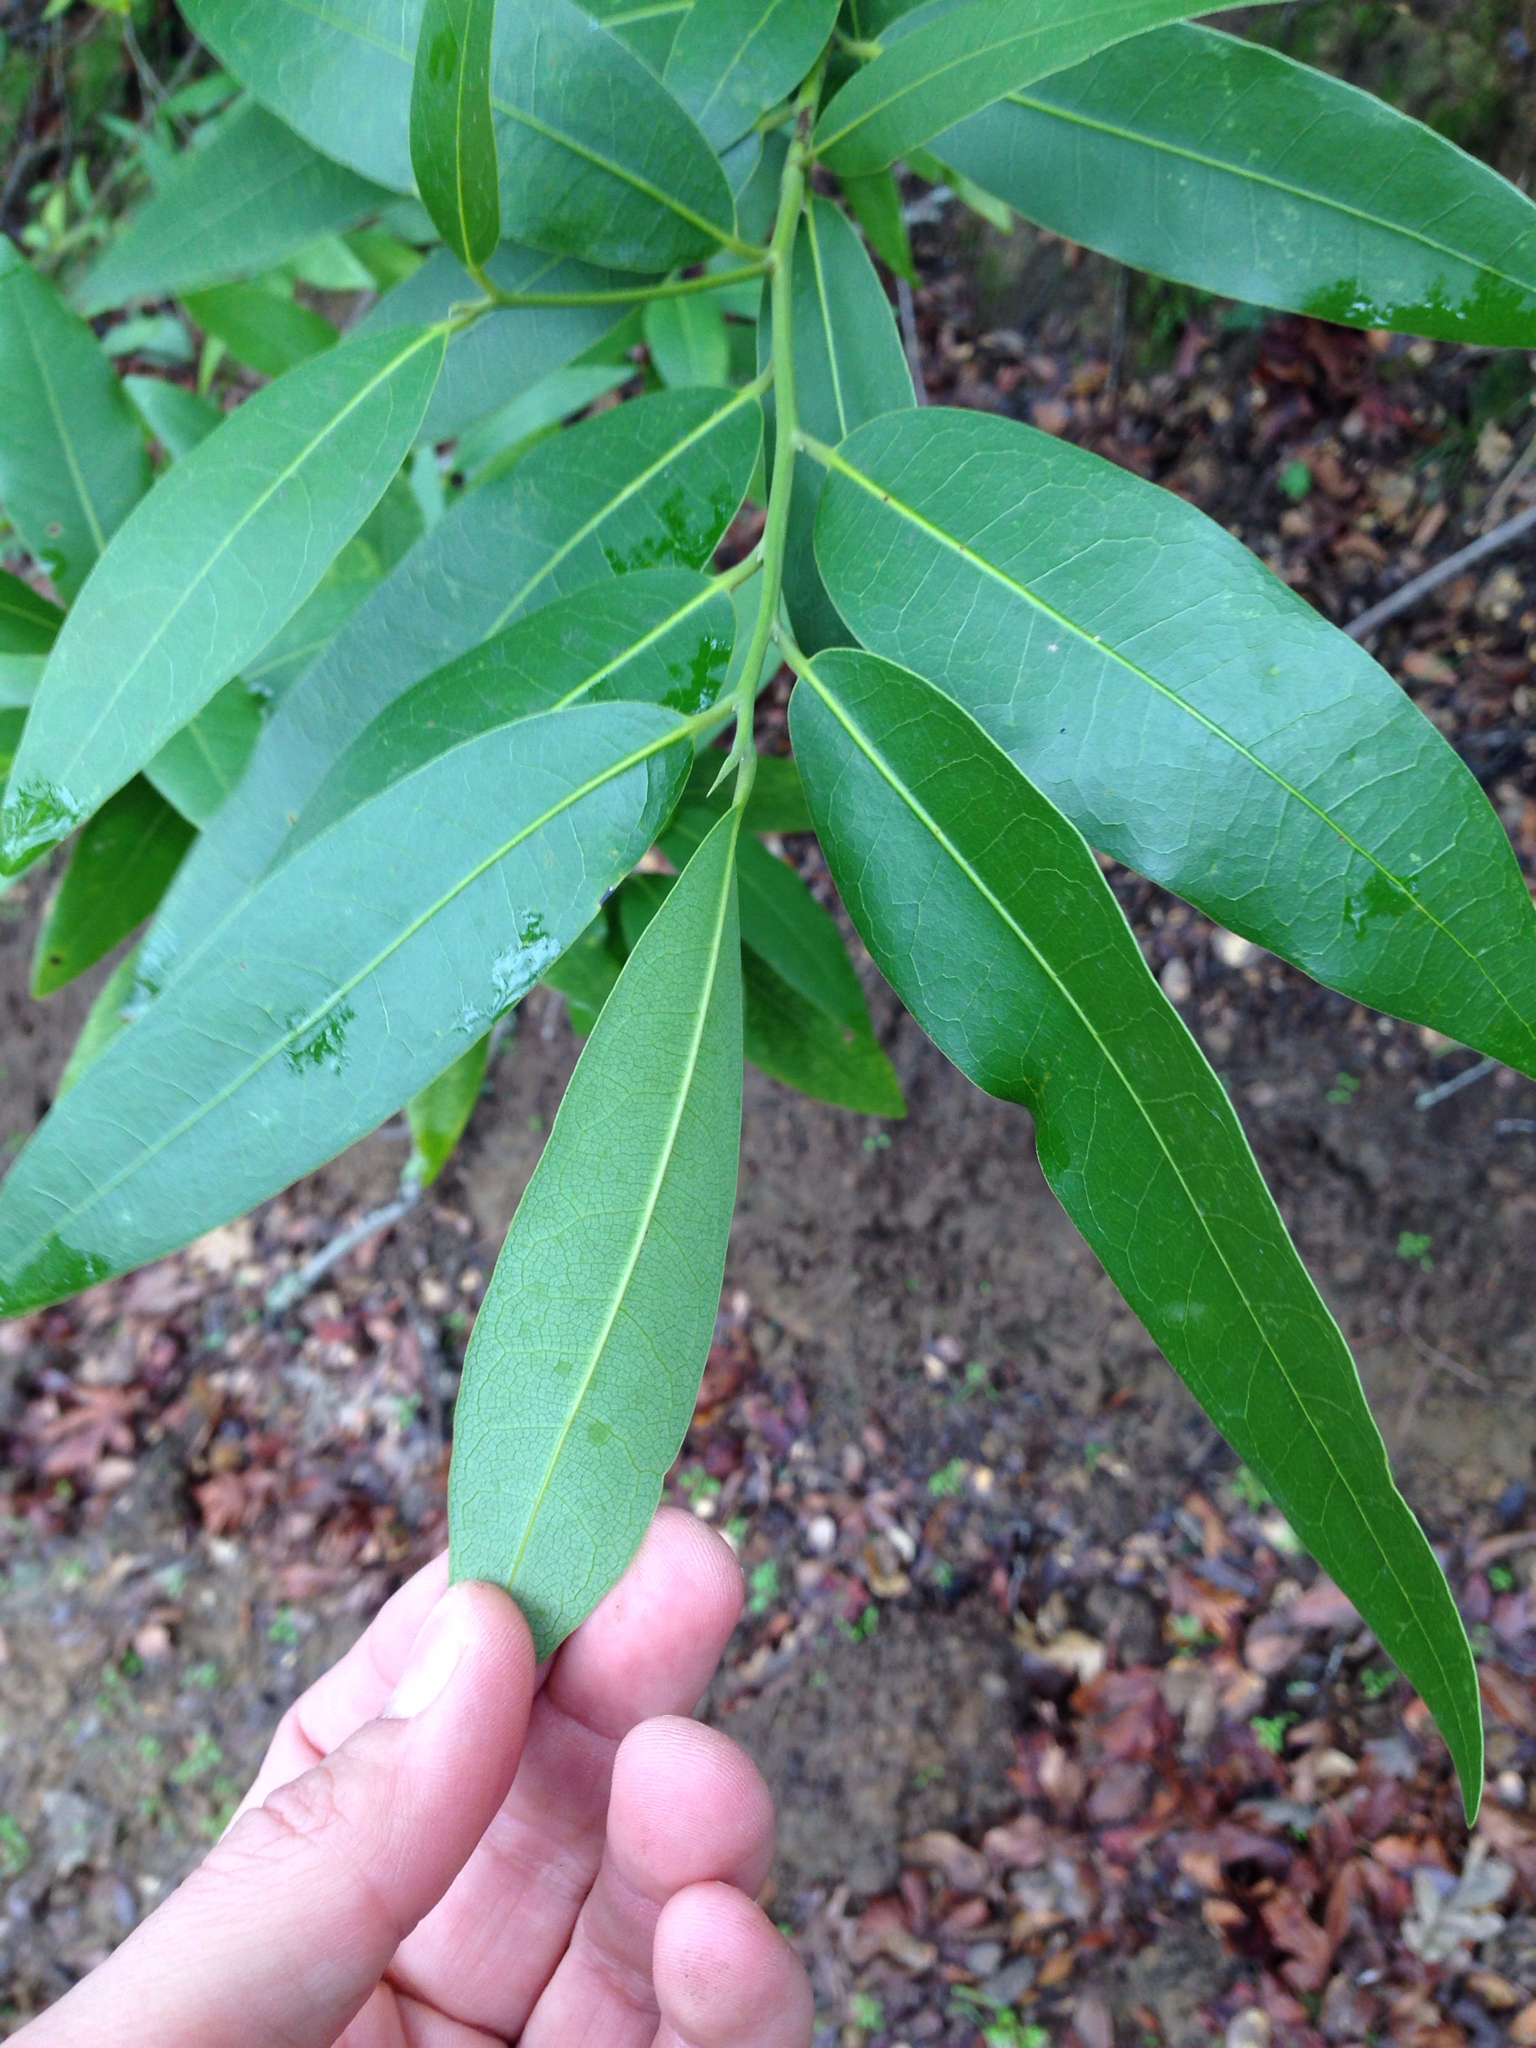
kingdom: Plantae
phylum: Tracheophyta
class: Magnoliopsida
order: Laurales
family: Lauraceae
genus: Umbellularia
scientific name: Umbellularia californica
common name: California bay
